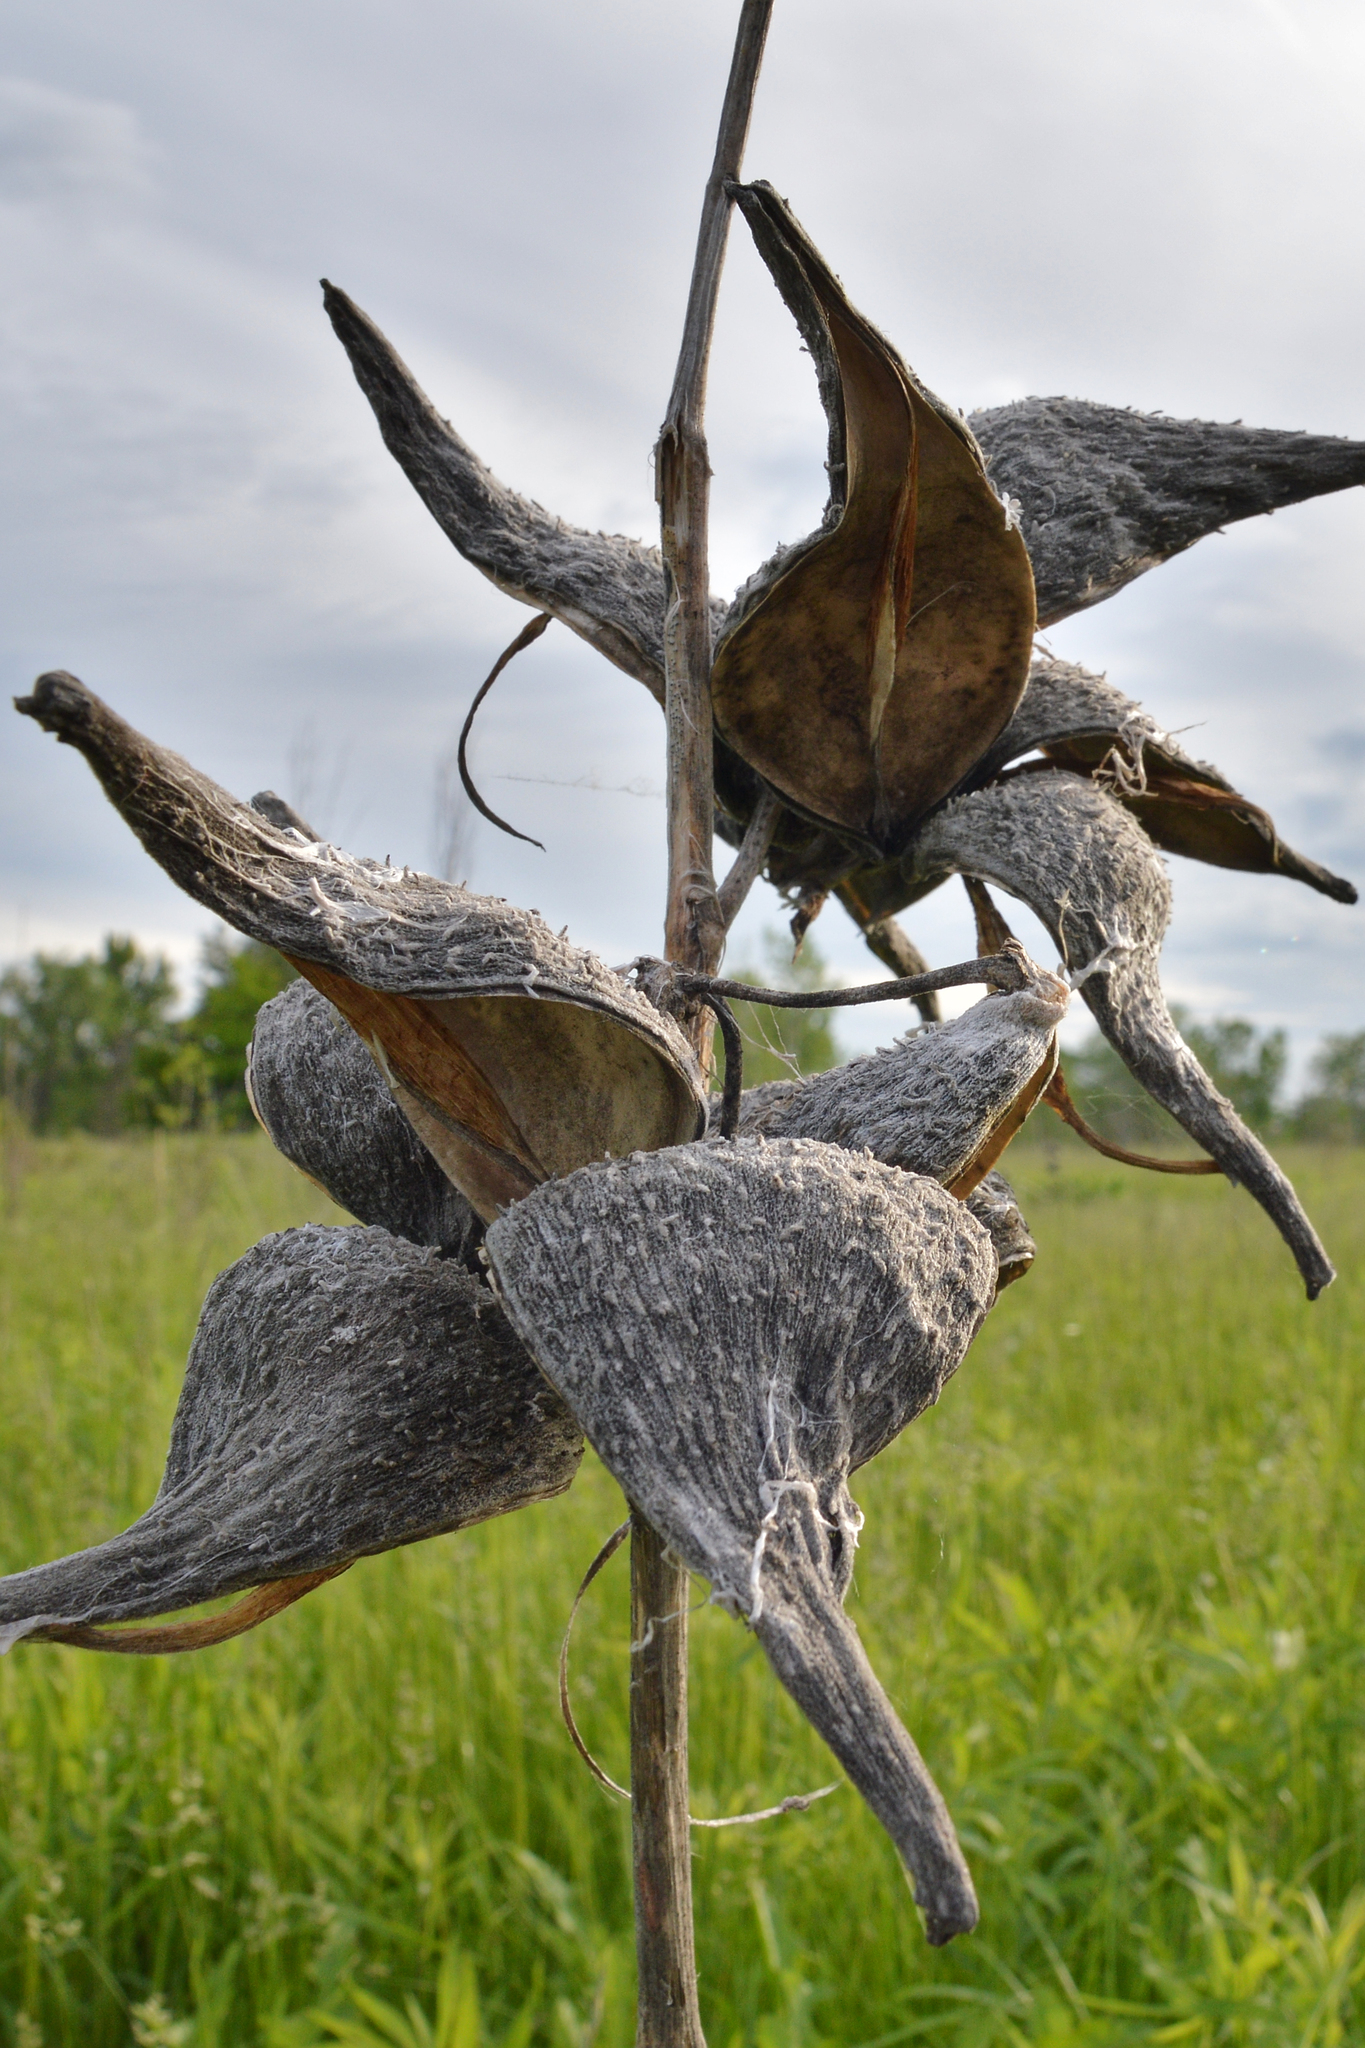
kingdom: Plantae
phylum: Tracheophyta
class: Magnoliopsida
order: Gentianales
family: Apocynaceae
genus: Asclepias
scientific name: Asclepias syriaca
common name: Common milkweed
